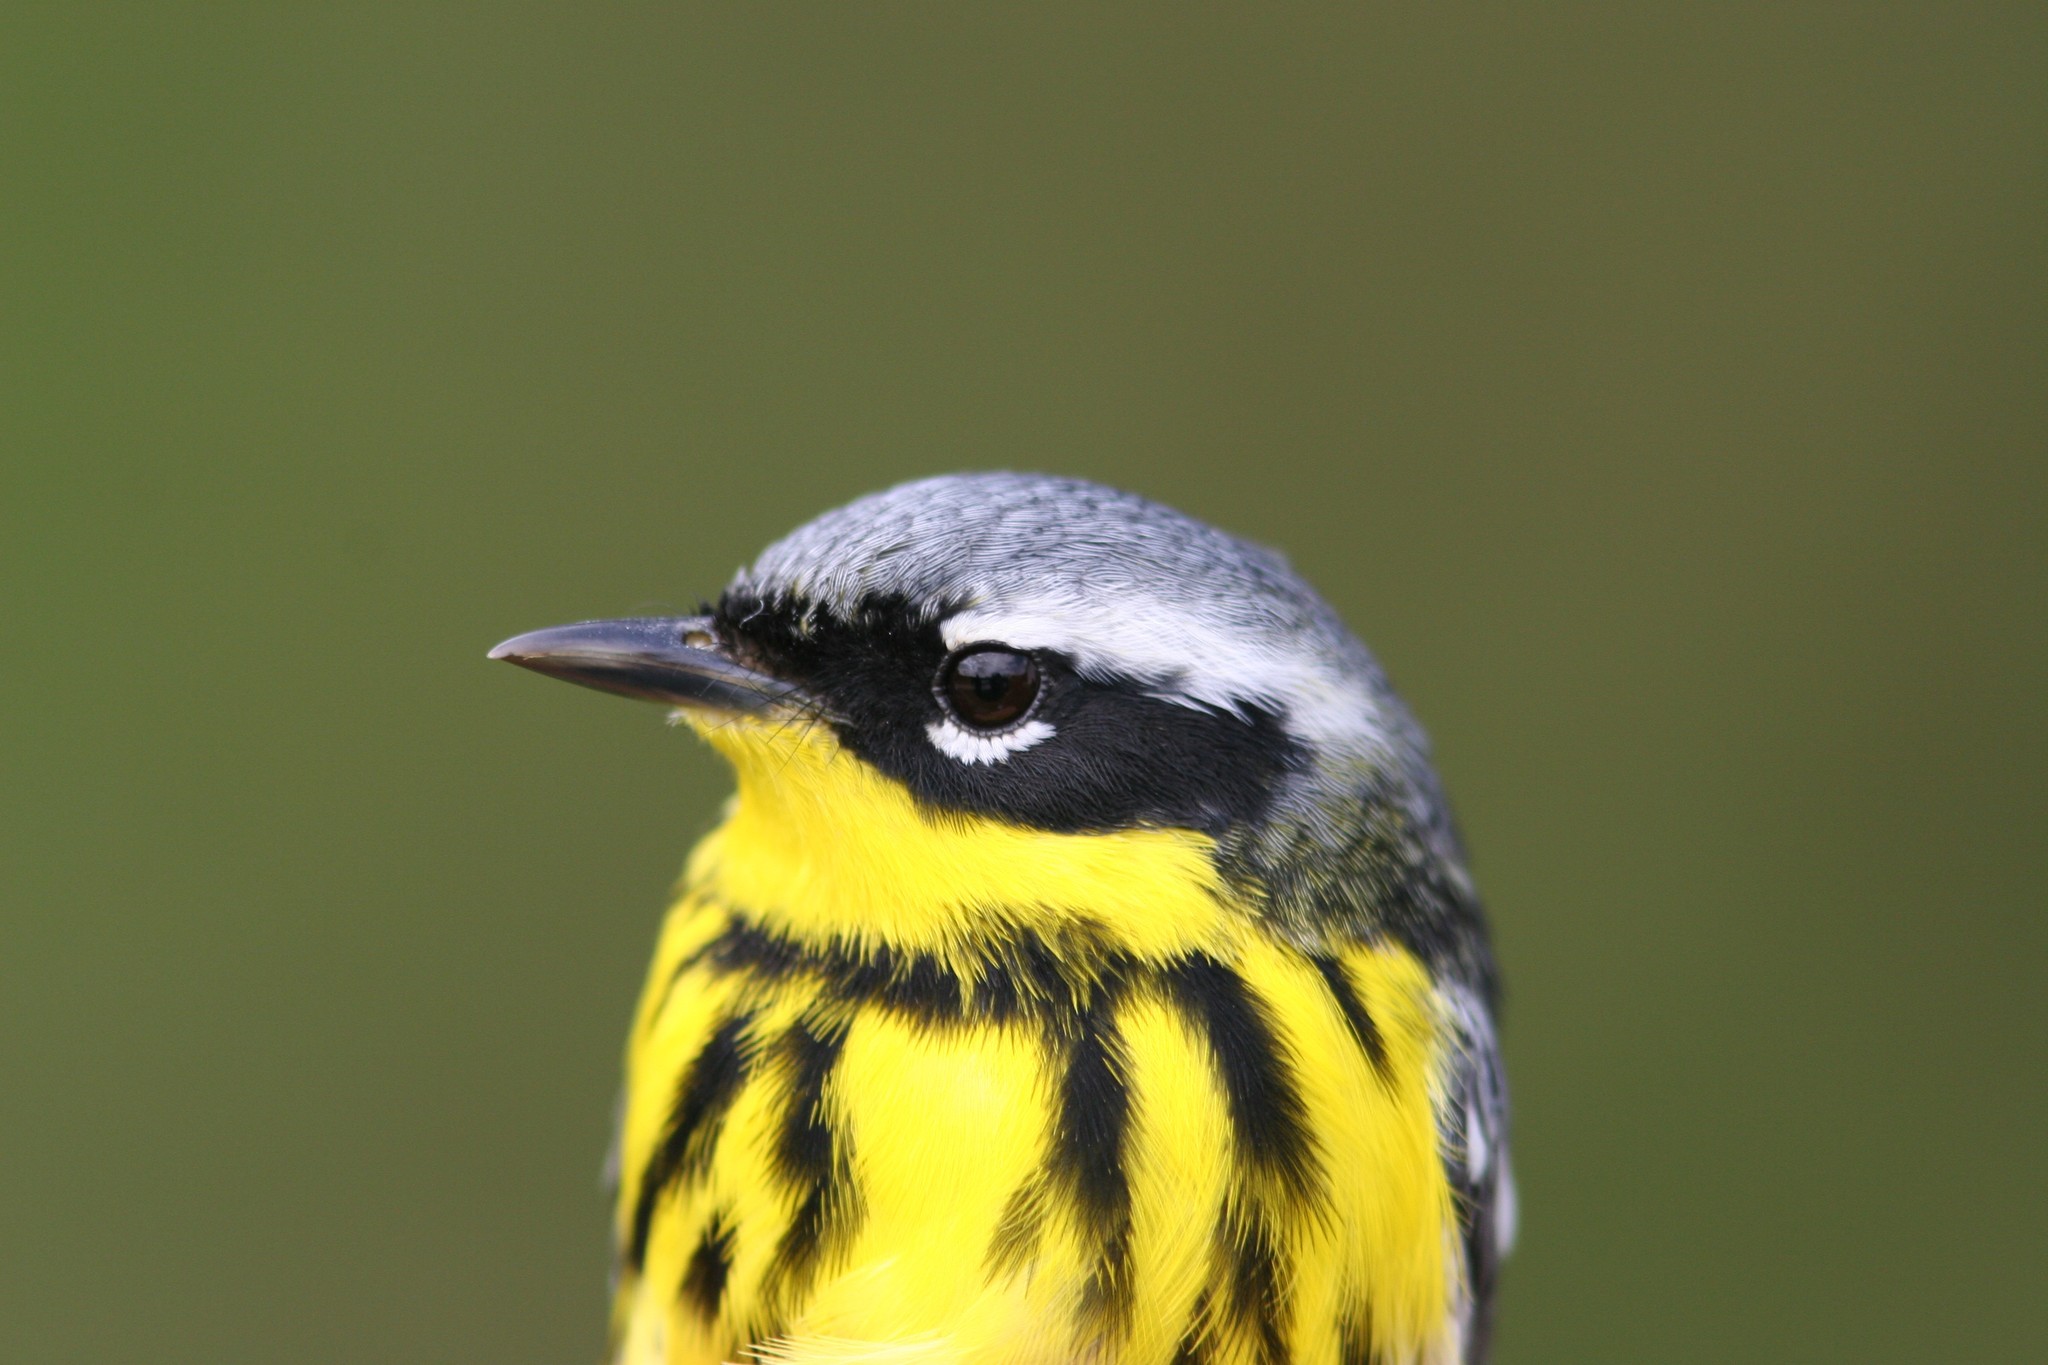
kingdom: Animalia
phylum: Chordata
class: Aves
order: Passeriformes
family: Parulidae
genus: Setophaga
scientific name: Setophaga magnolia
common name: Magnolia warbler
